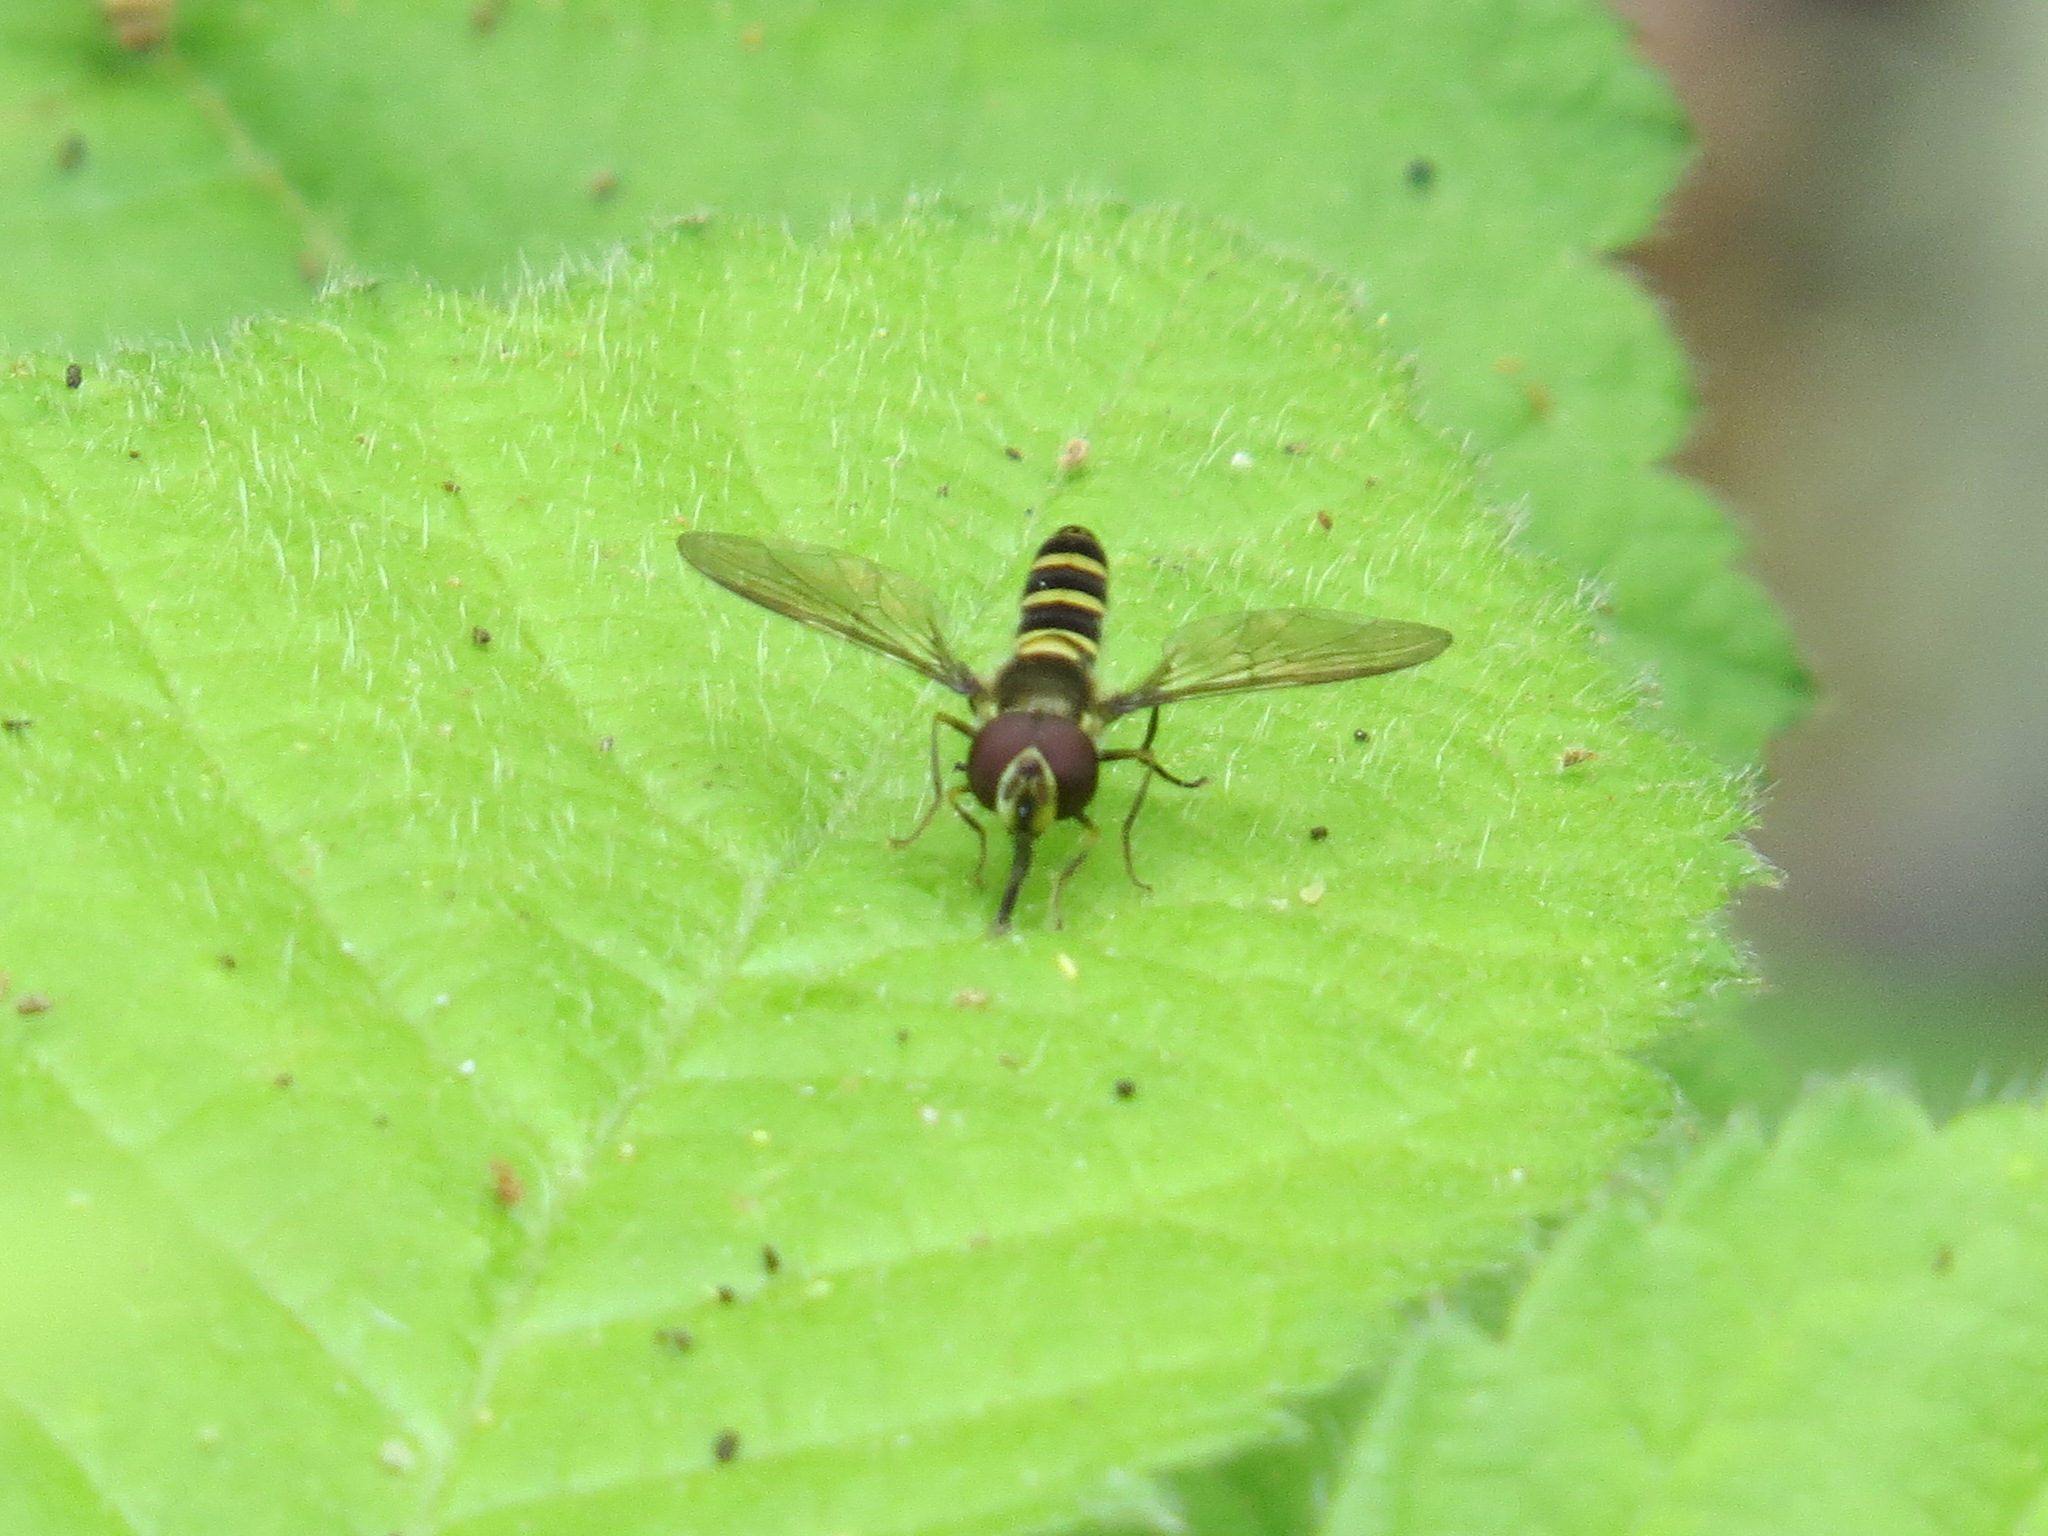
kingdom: Animalia
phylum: Arthropoda
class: Insecta
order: Diptera
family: Syrphidae
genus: Fazia
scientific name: Fazia micrura
